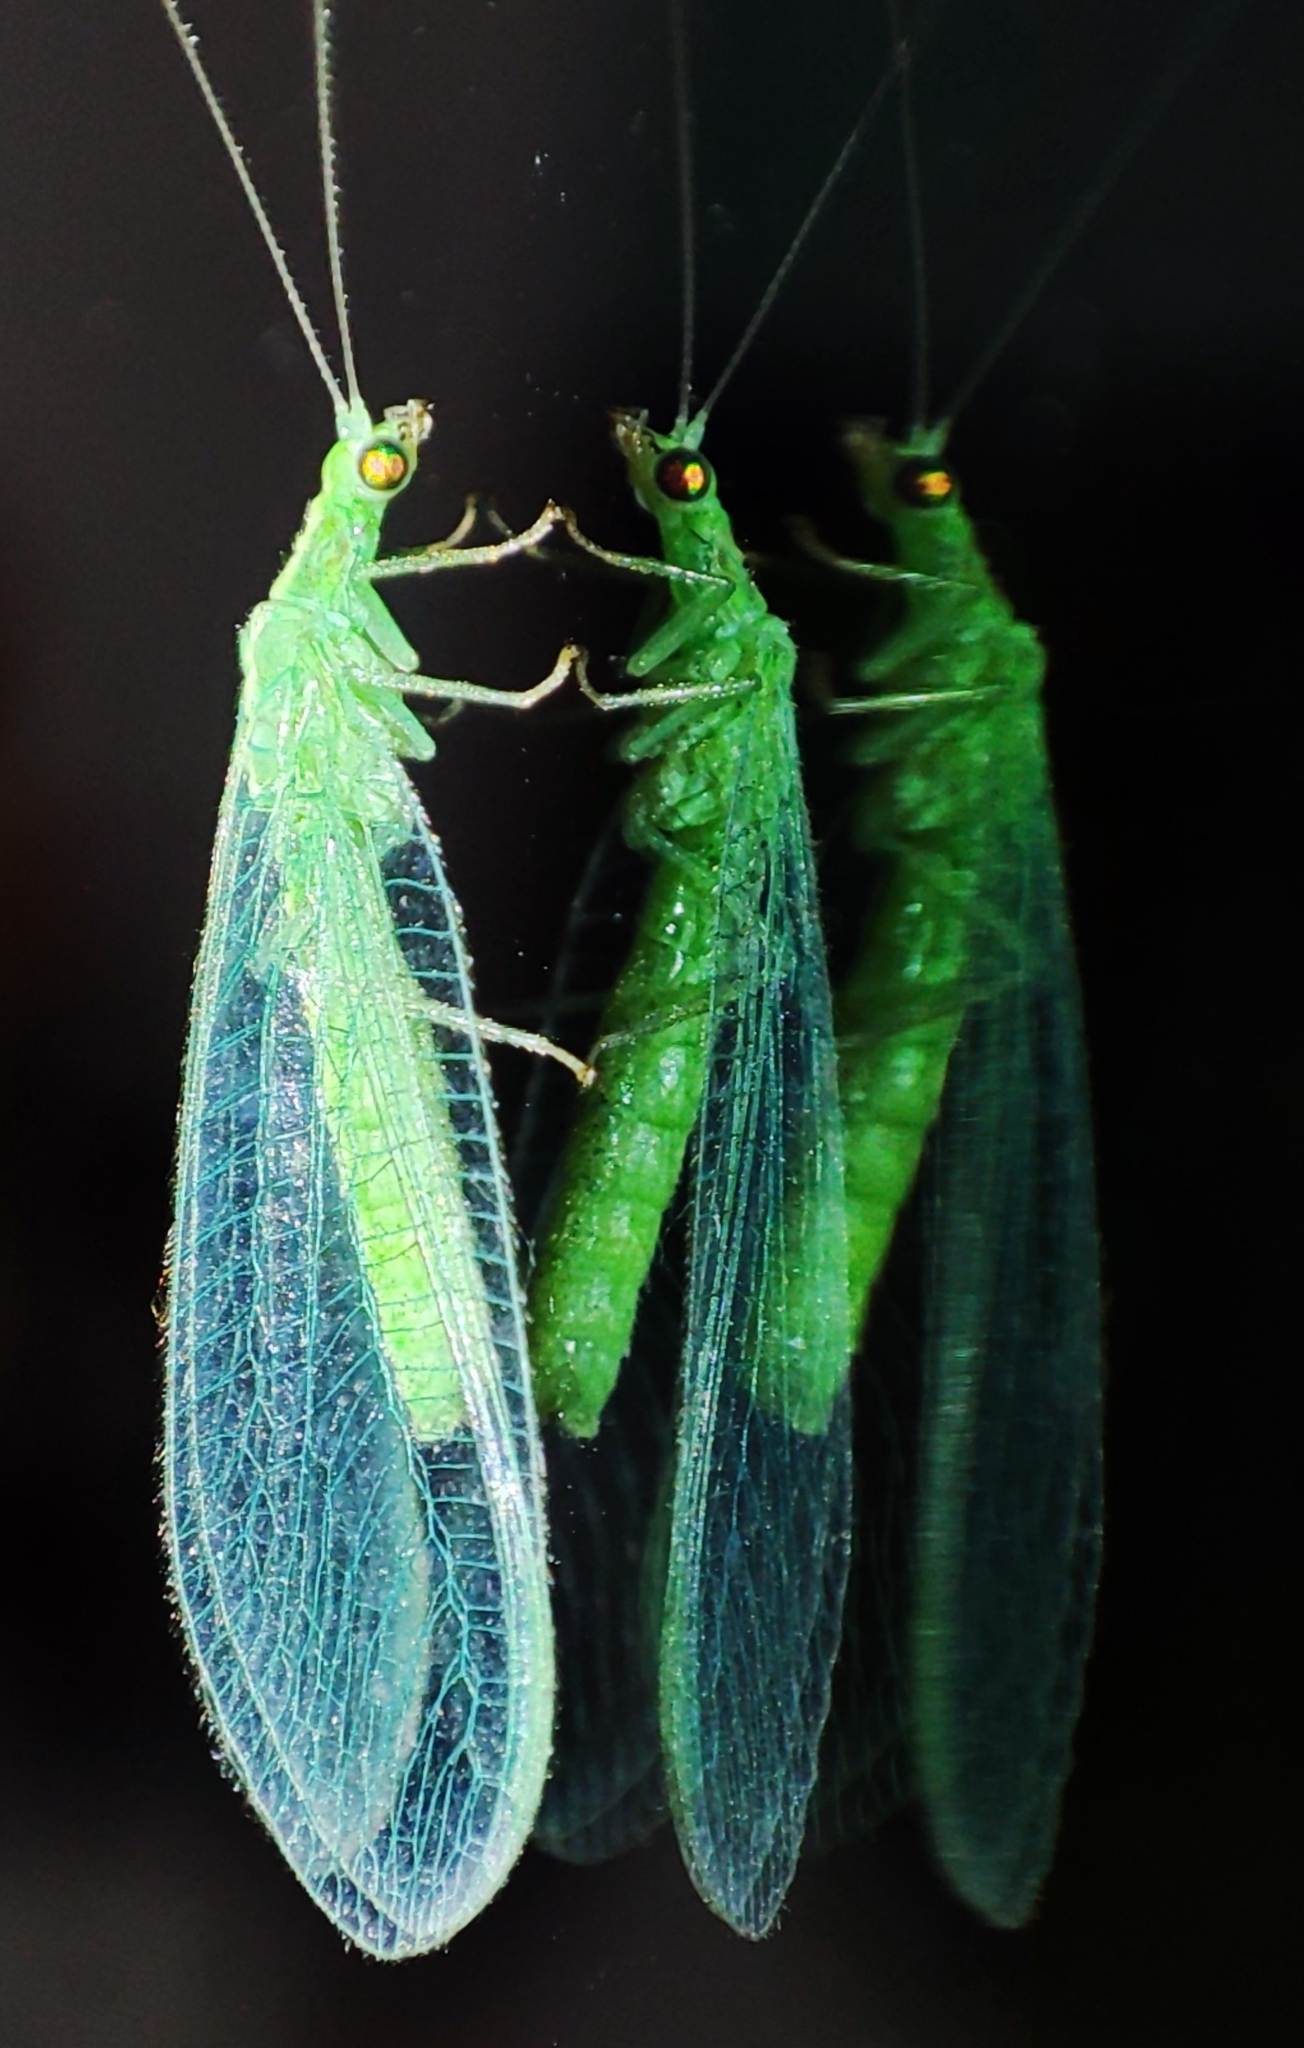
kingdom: Animalia
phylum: Arthropoda
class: Insecta
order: Neuroptera
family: Chrysopidae
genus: Chrysoperla
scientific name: Chrysoperla
